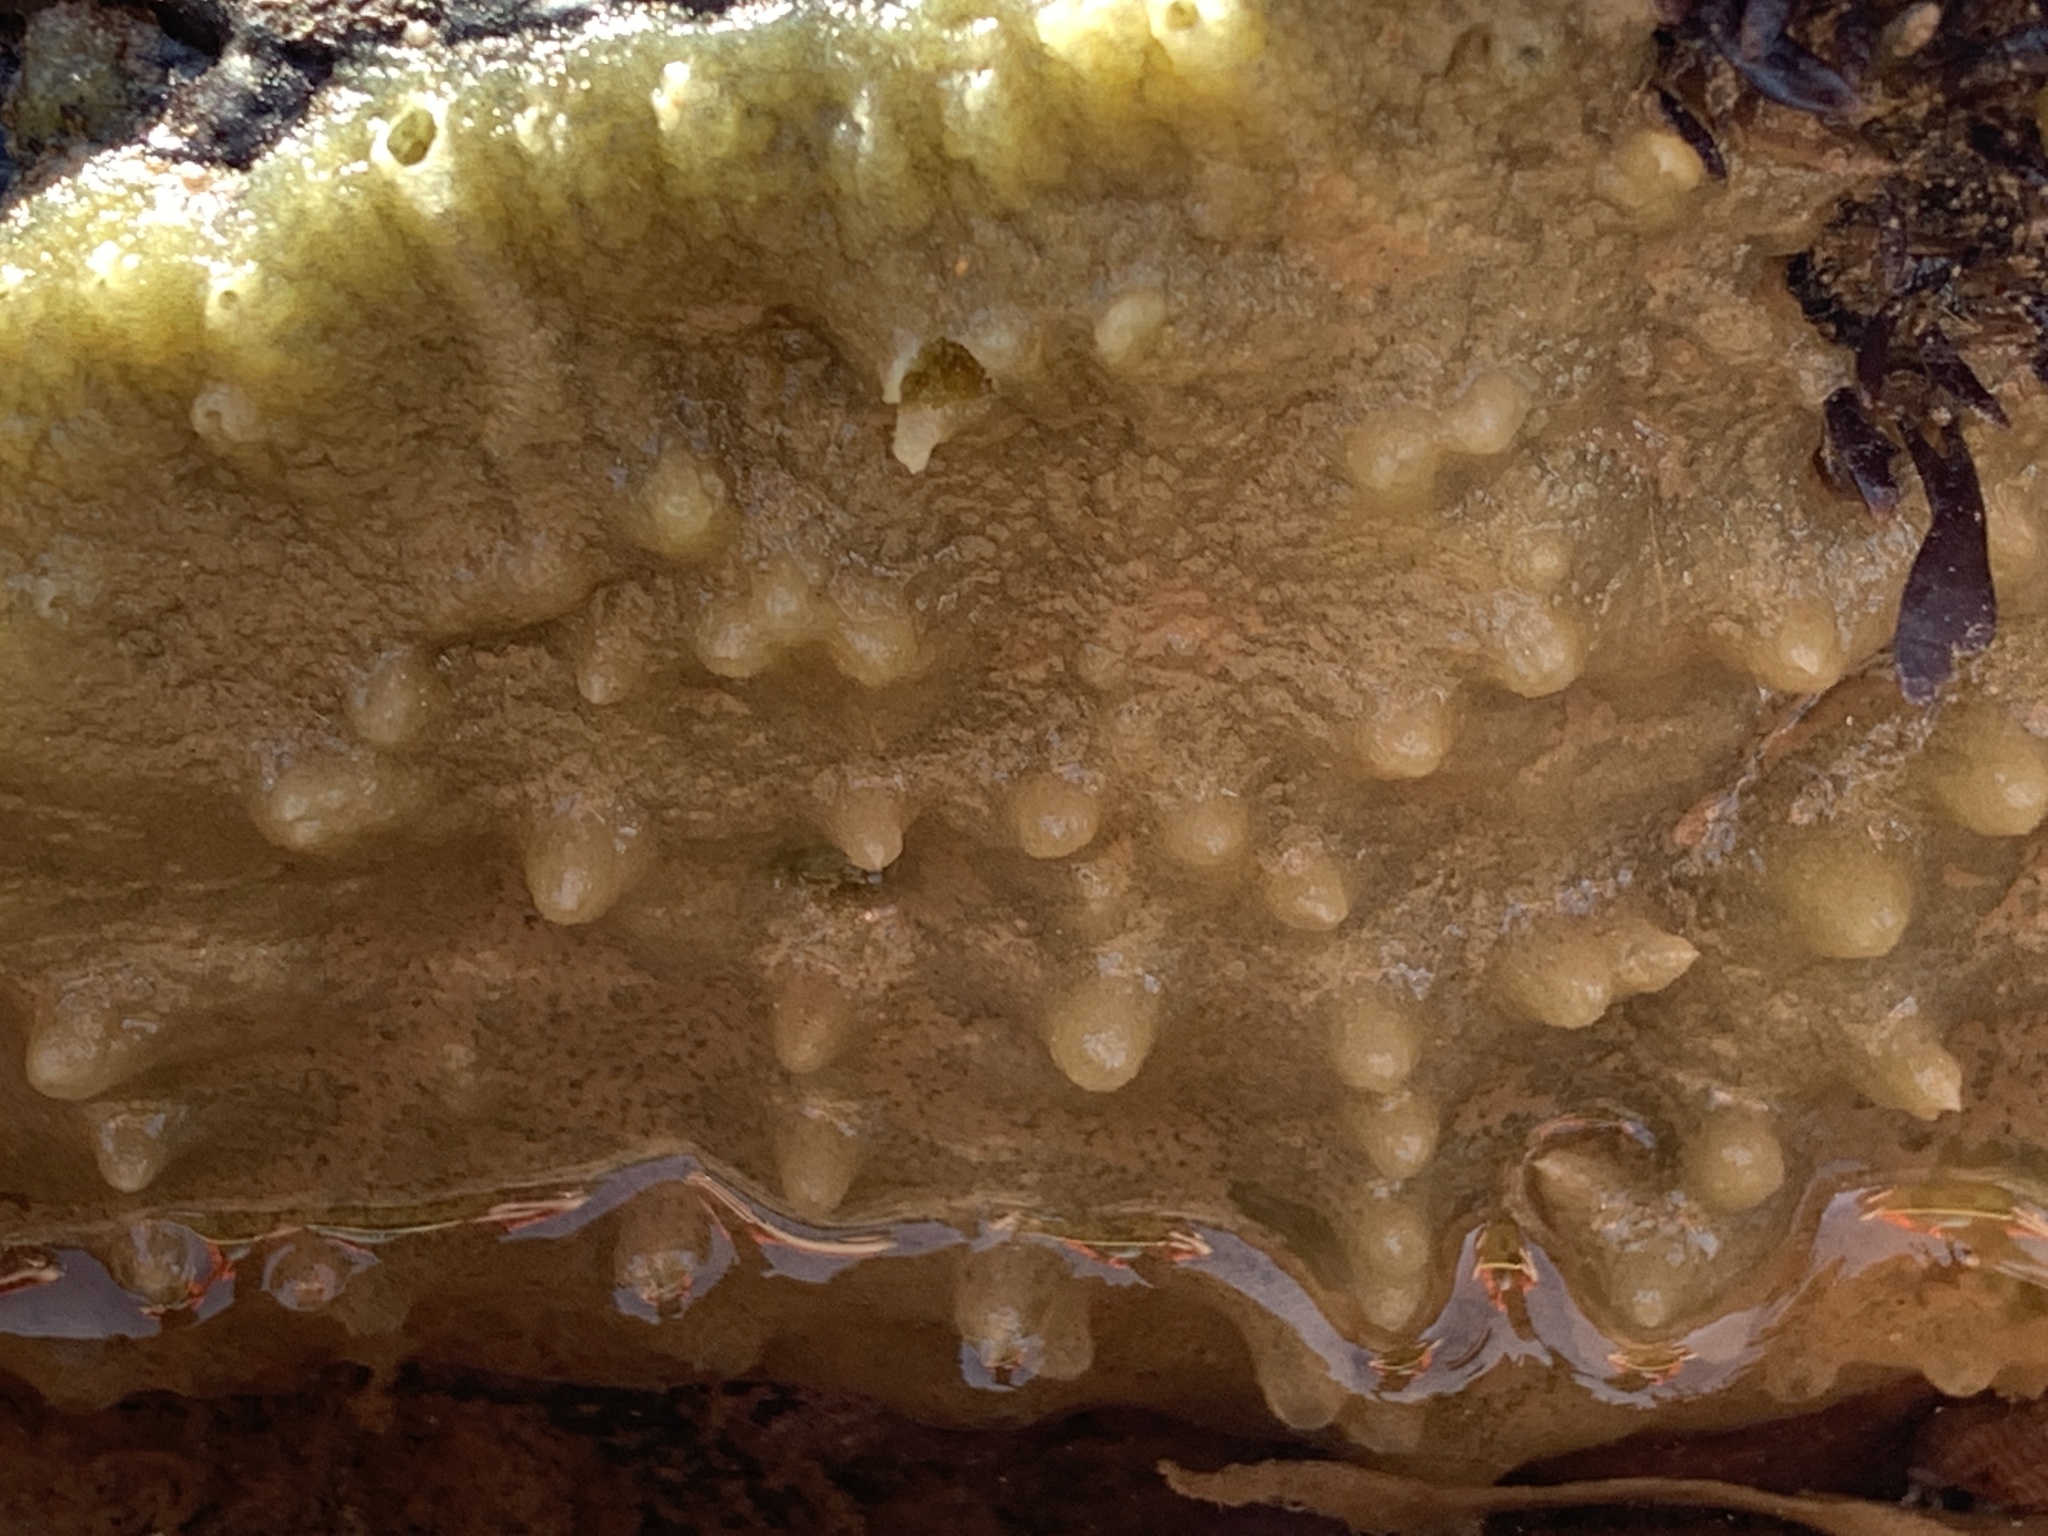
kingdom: Animalia
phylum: Porifera
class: Demospongiae
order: Suberitida
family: Halichondriidae
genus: Halichondria
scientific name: Halichondria panicea
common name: Breadcrumb sponge
